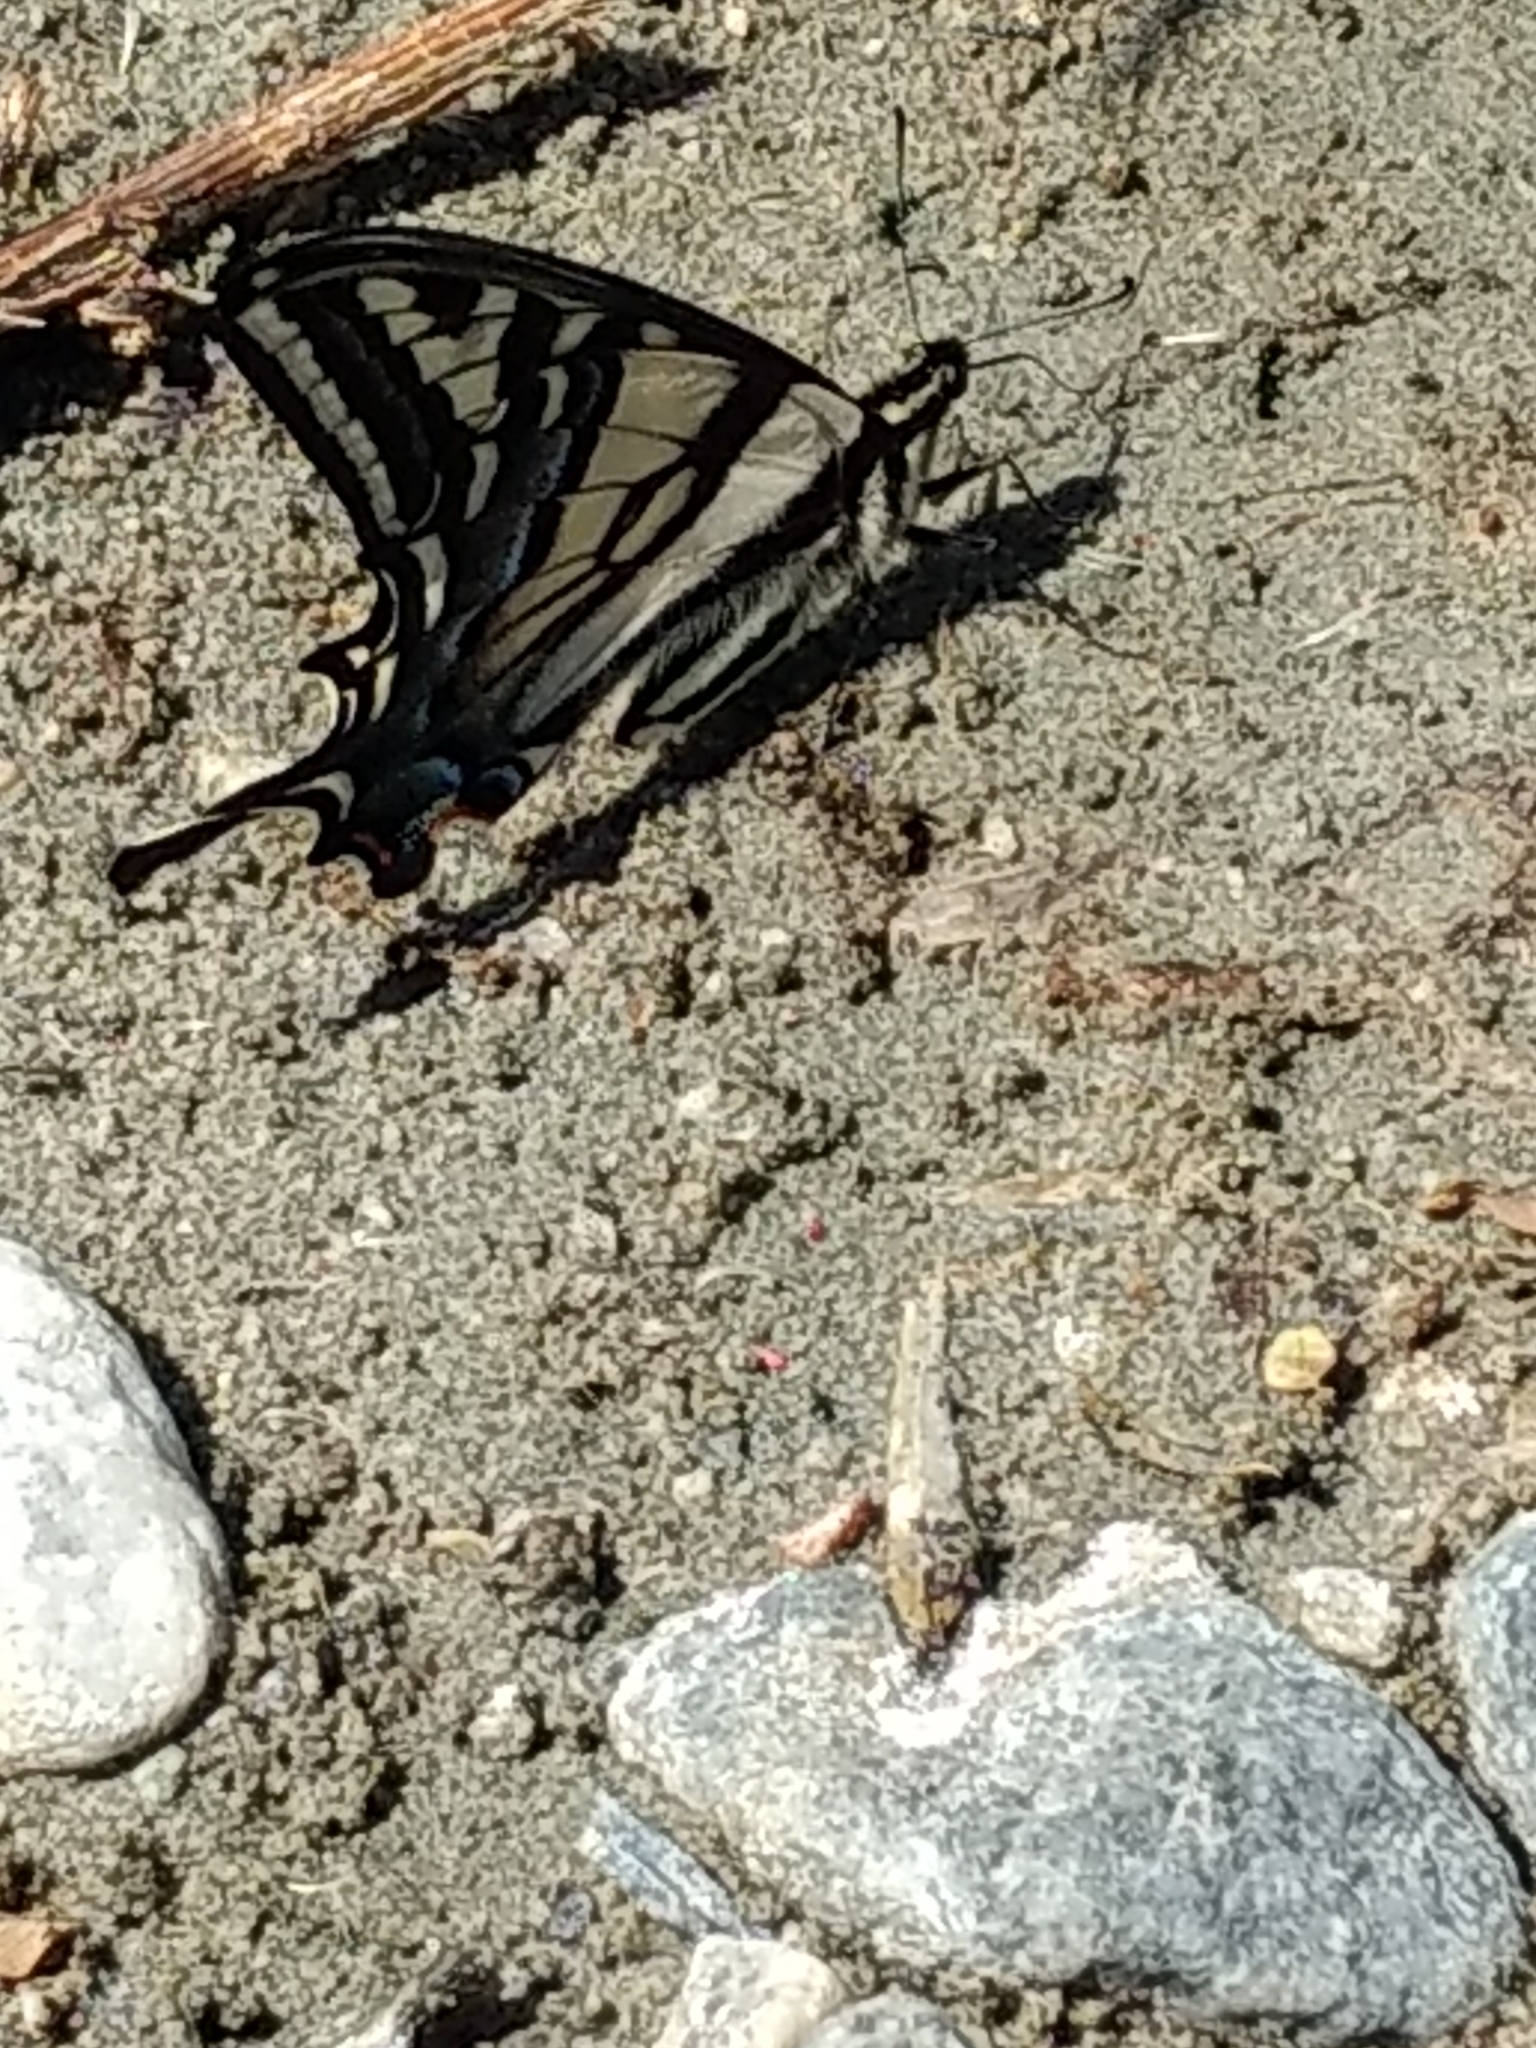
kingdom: Animalia
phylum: Arthropoda
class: Insecta
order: Lepidoptera
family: Papilionidae
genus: Papilio
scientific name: Papilio eurymedon
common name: Pale tiger swallowtail
